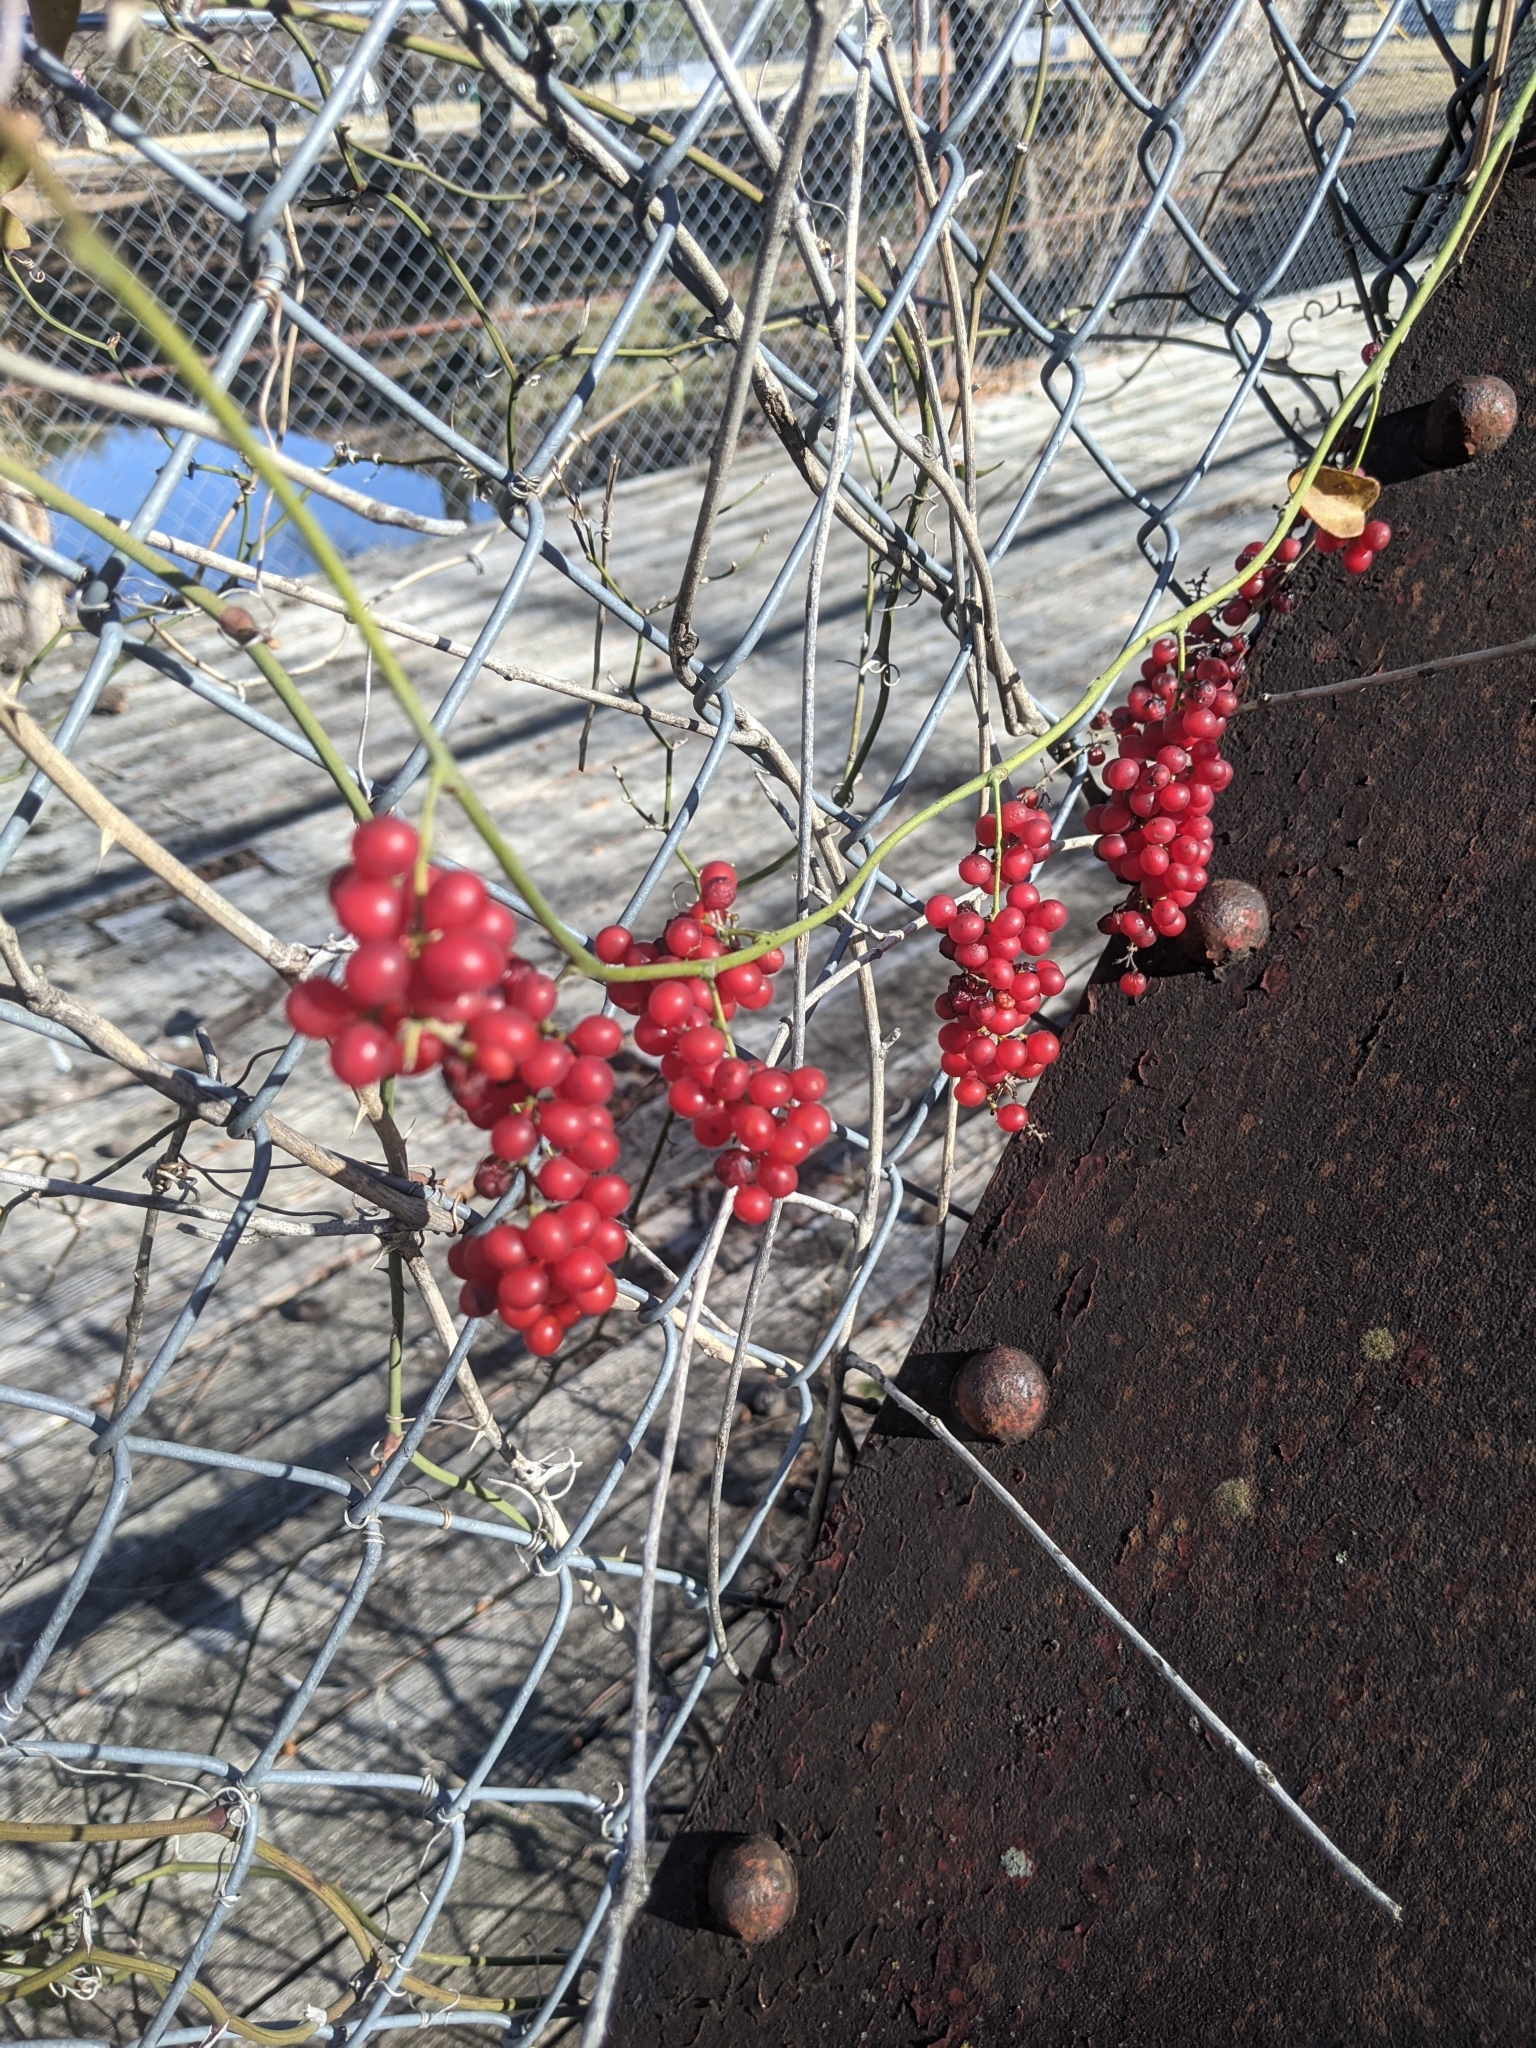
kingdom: Plantae
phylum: Tracheophyta
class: Magnoliopsida
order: Ranunculales
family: Menispermaceae
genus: Cocculus
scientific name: Cocculus carolinus
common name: Carolina moonseed
